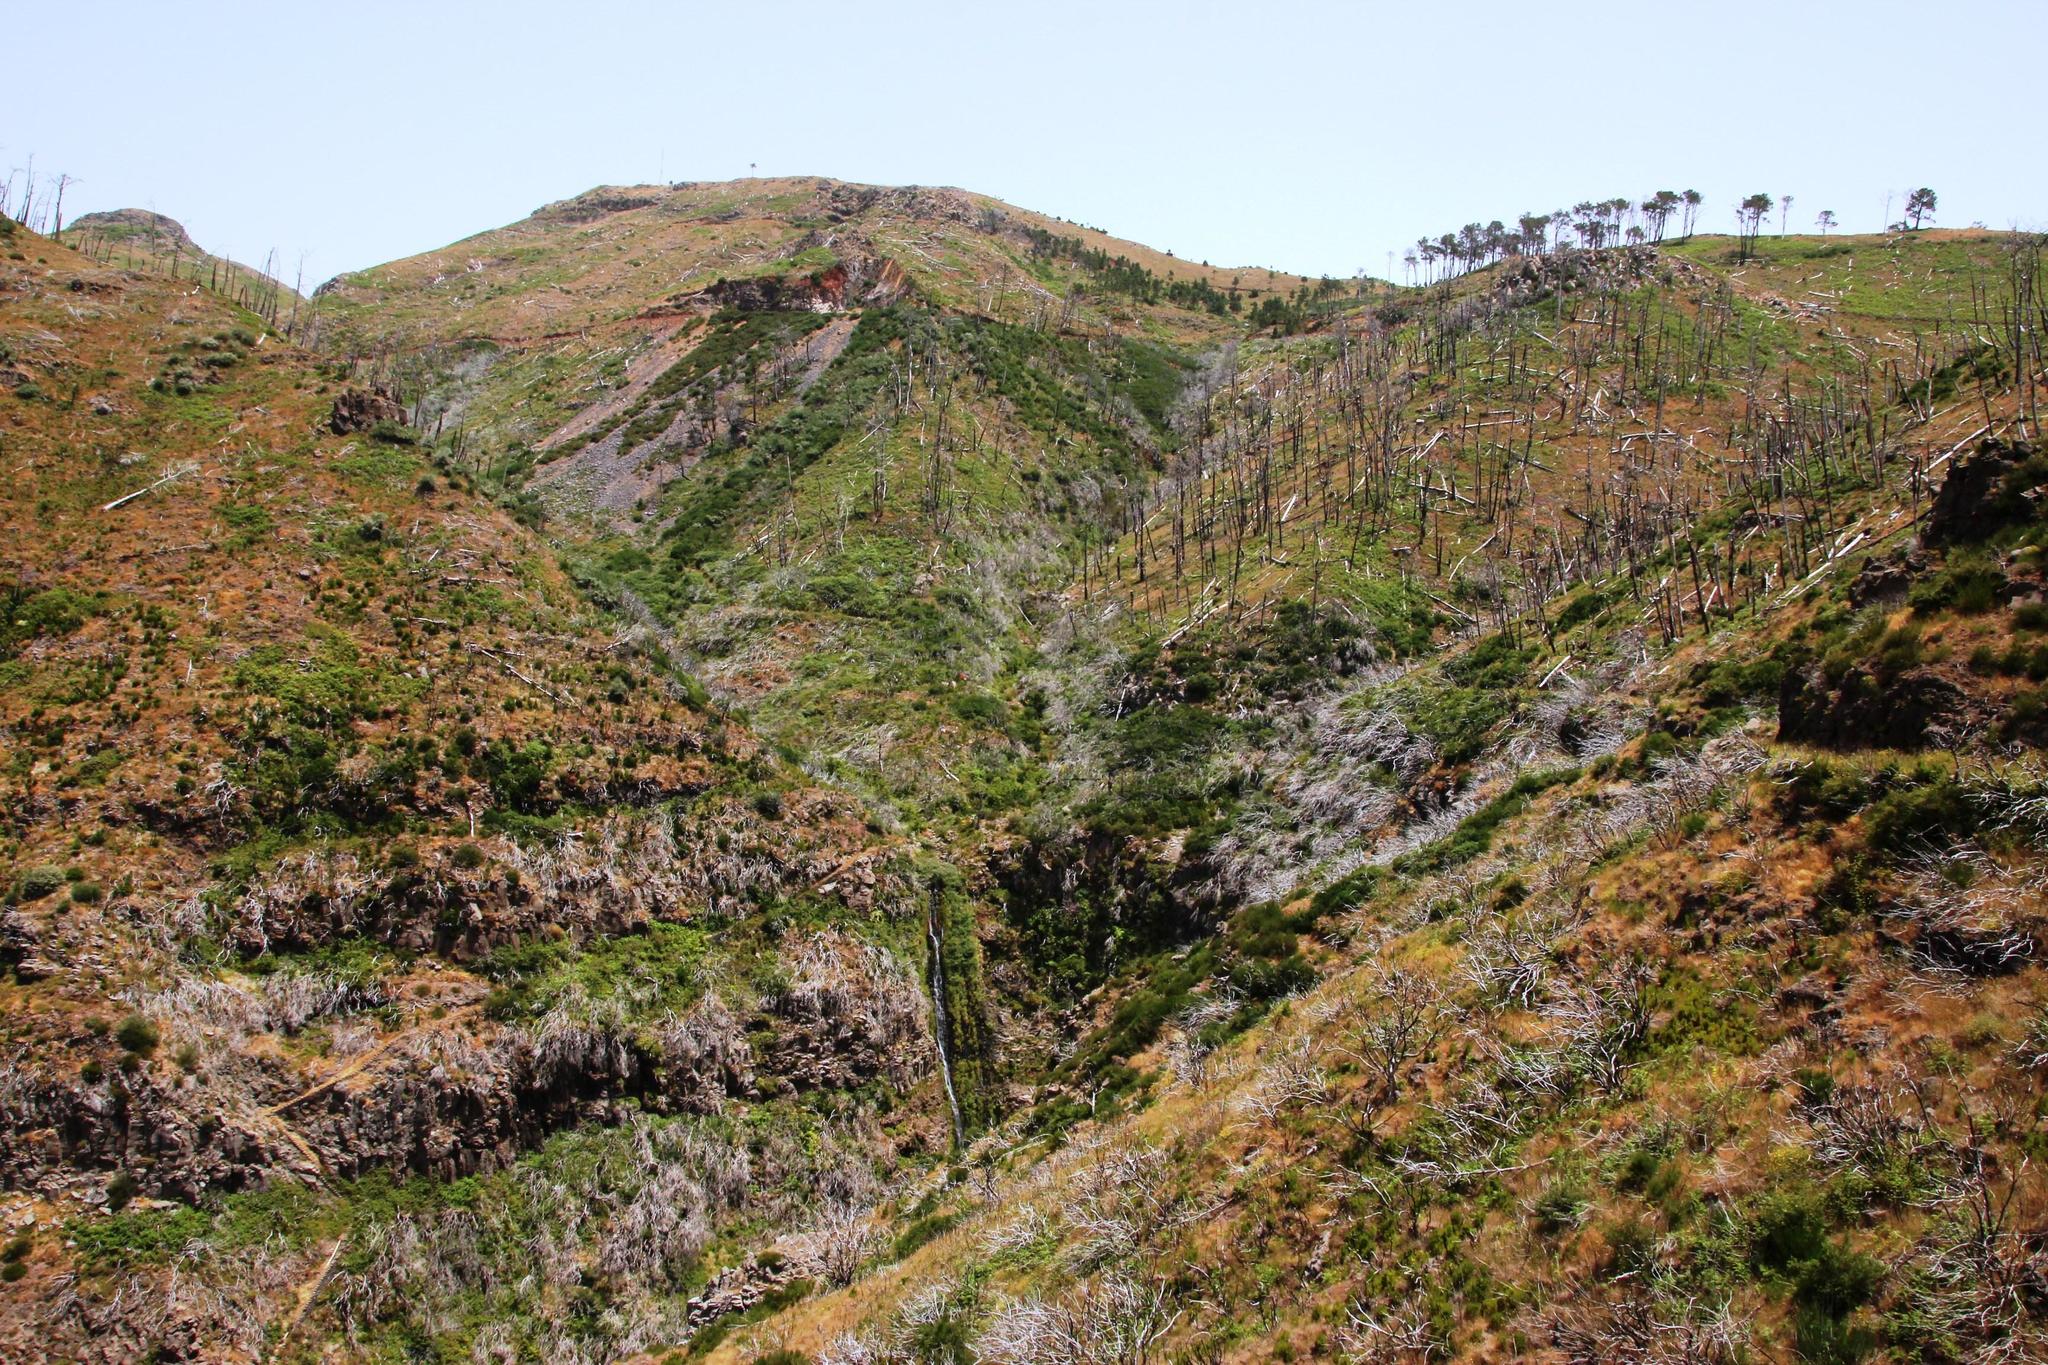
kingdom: Plantae
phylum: Tracheophyta
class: Pinopsida
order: Pinales
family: Pinaceae
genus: Pinus
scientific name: Pinus pinaster
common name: Maritime pine
